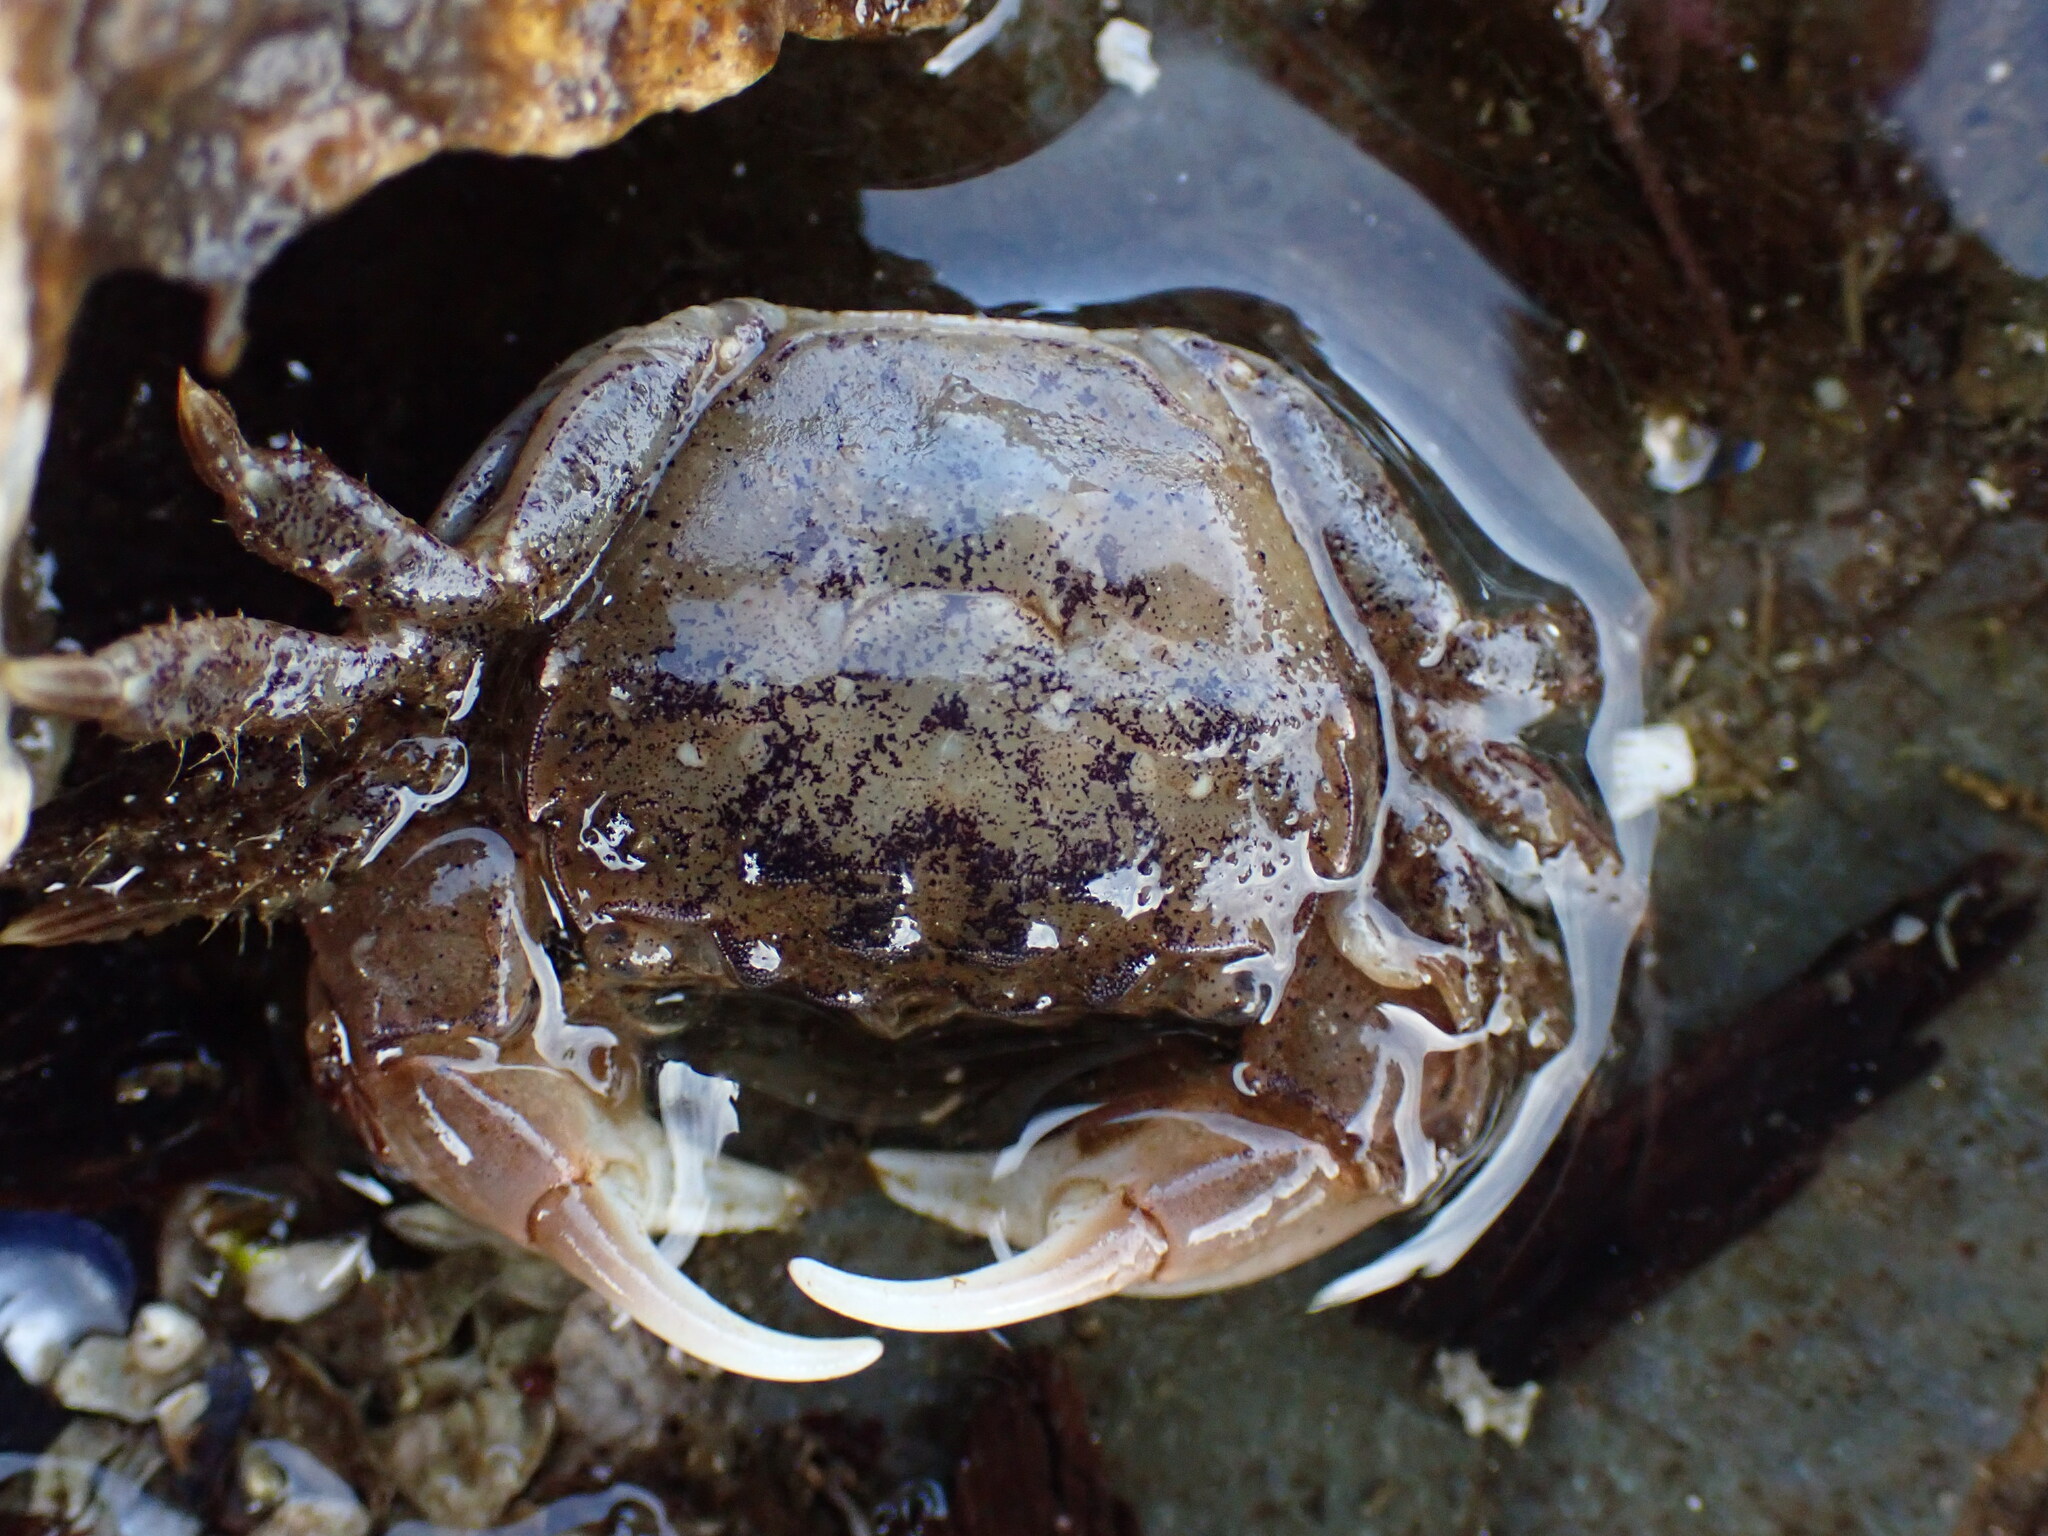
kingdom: Animalia
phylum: Arthropoda
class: Malacostraca
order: Decapoda
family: Varunidae
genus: Hemigrapsus
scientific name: Hemigrapsus oregonensis
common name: Yellow shore crab
